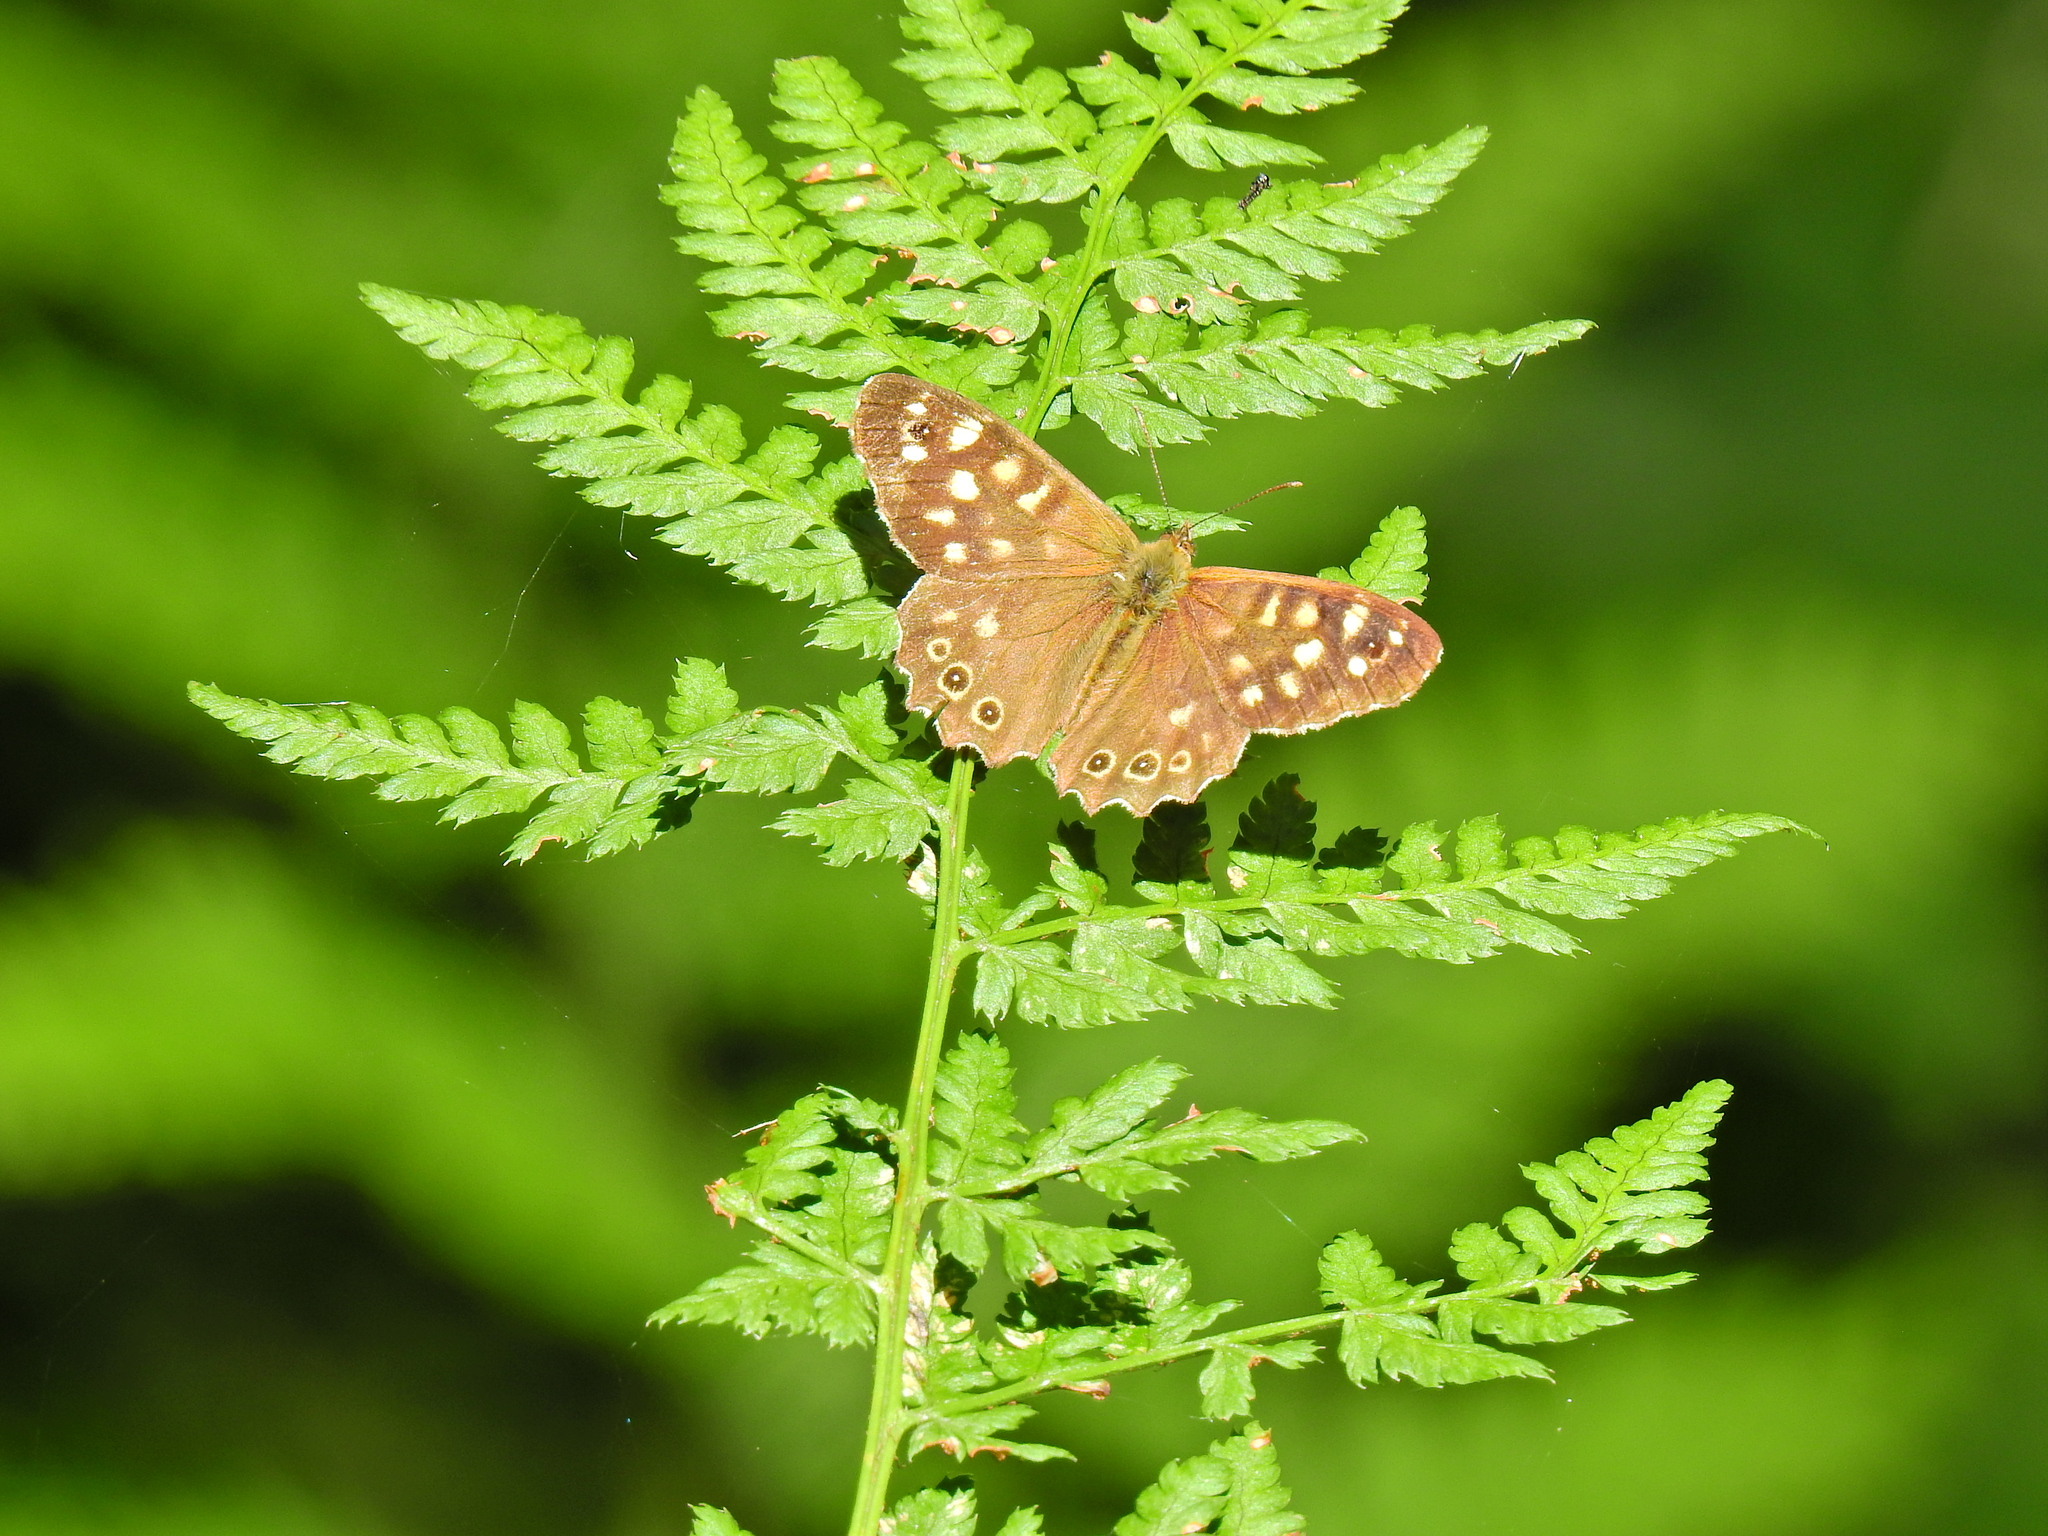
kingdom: Animalia
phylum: Arthropoda
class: Insecta
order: Lepidoptera
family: Nymphalidae
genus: Pararge
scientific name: Pararge aegeria
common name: Speckled wood
